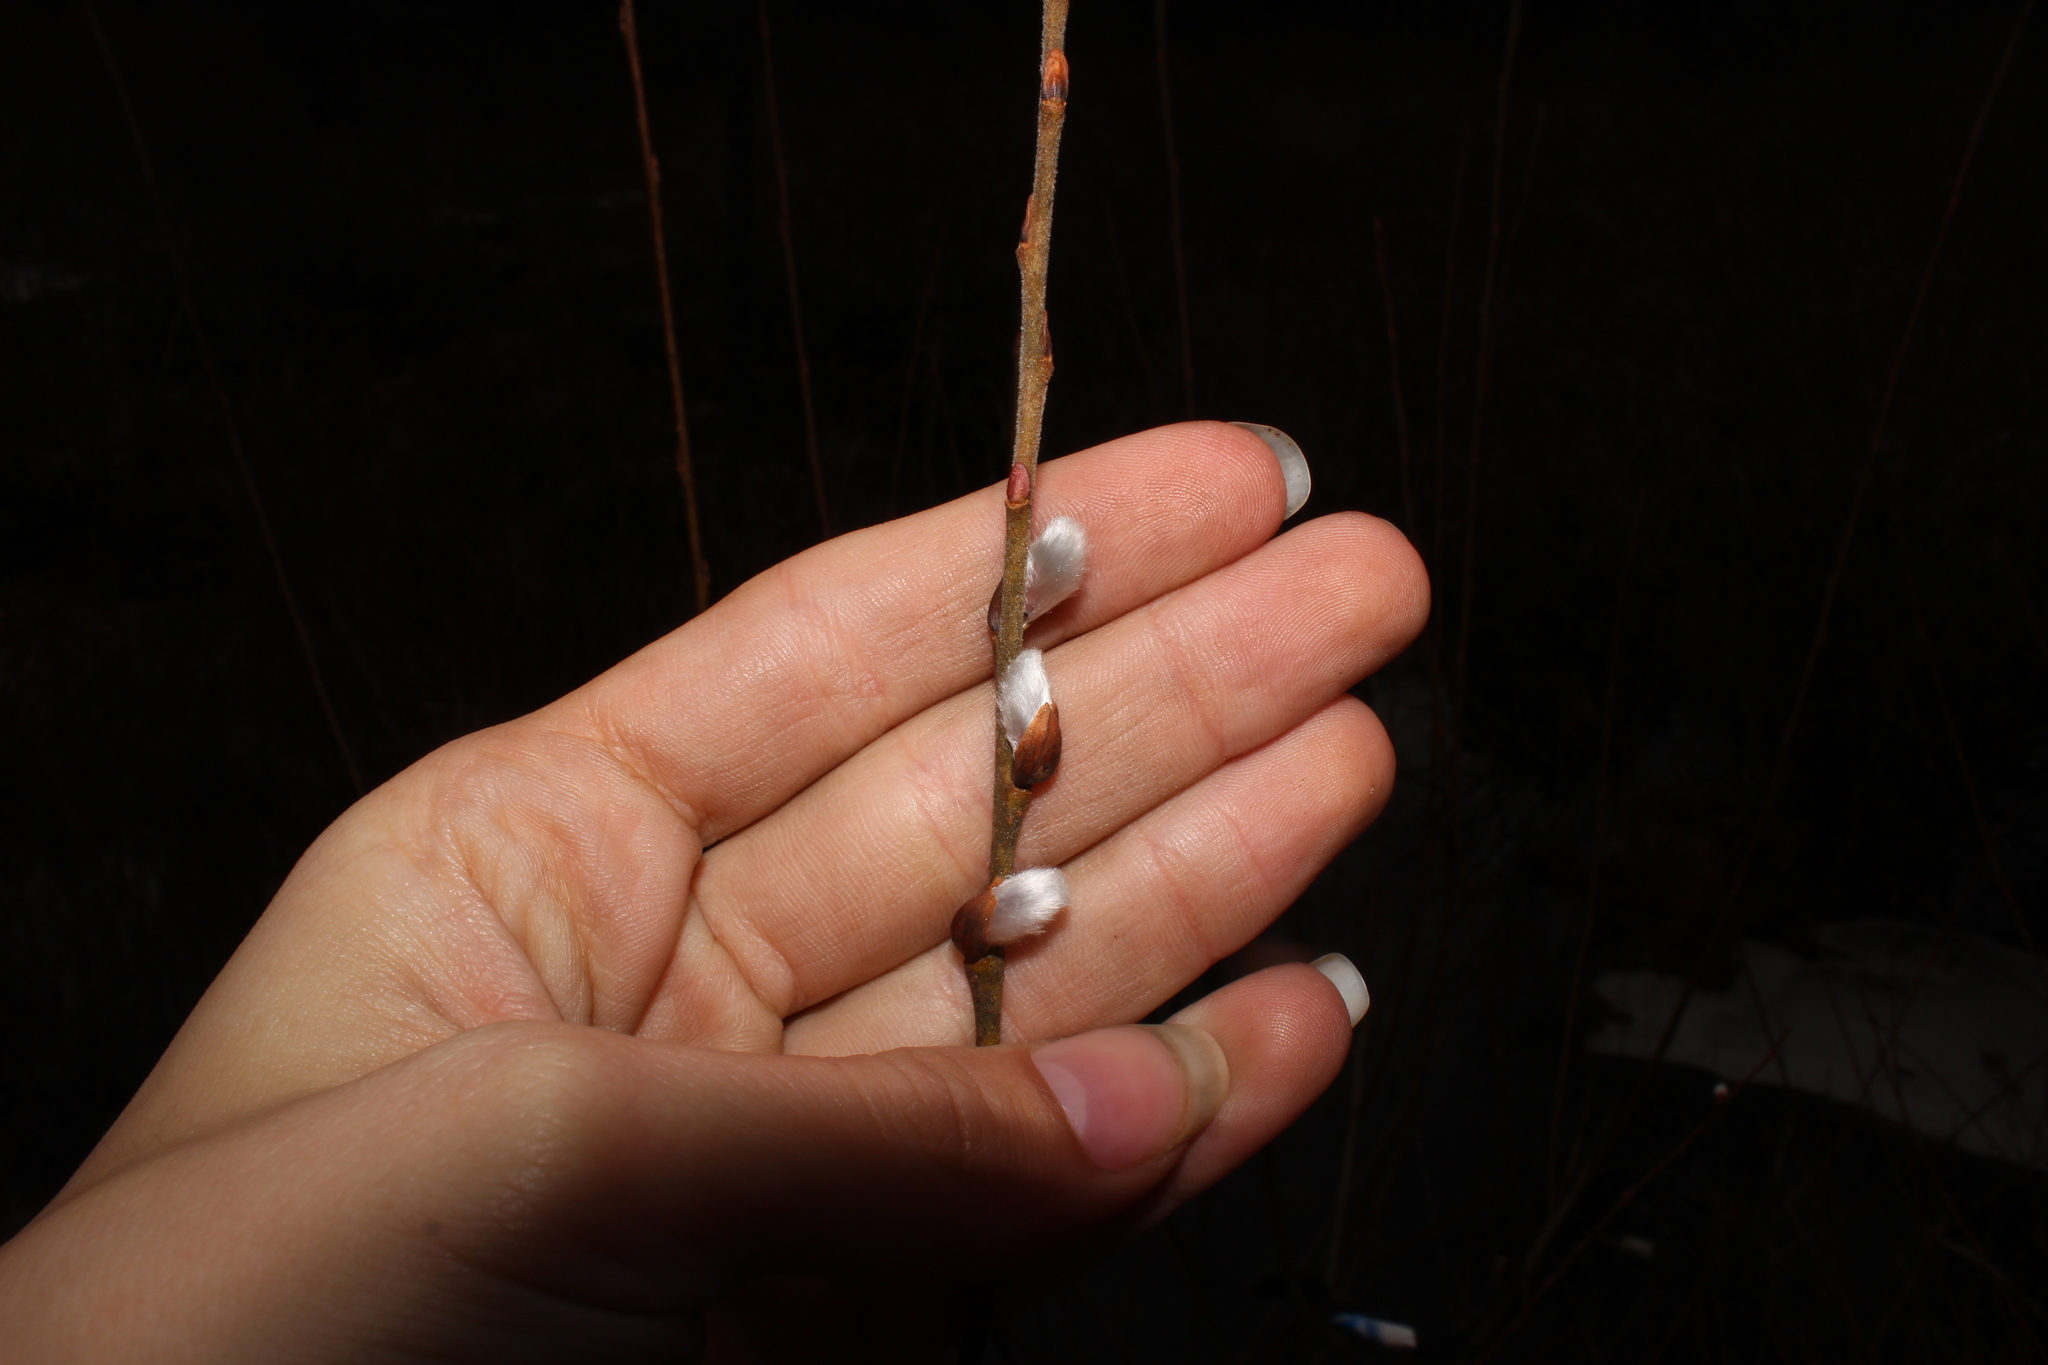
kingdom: Plantae
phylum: Tracheophyta
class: Magnoliopsida
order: Malpighiales
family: Salicaceae
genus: Salix
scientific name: Salix discolor
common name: Glaucous willow
